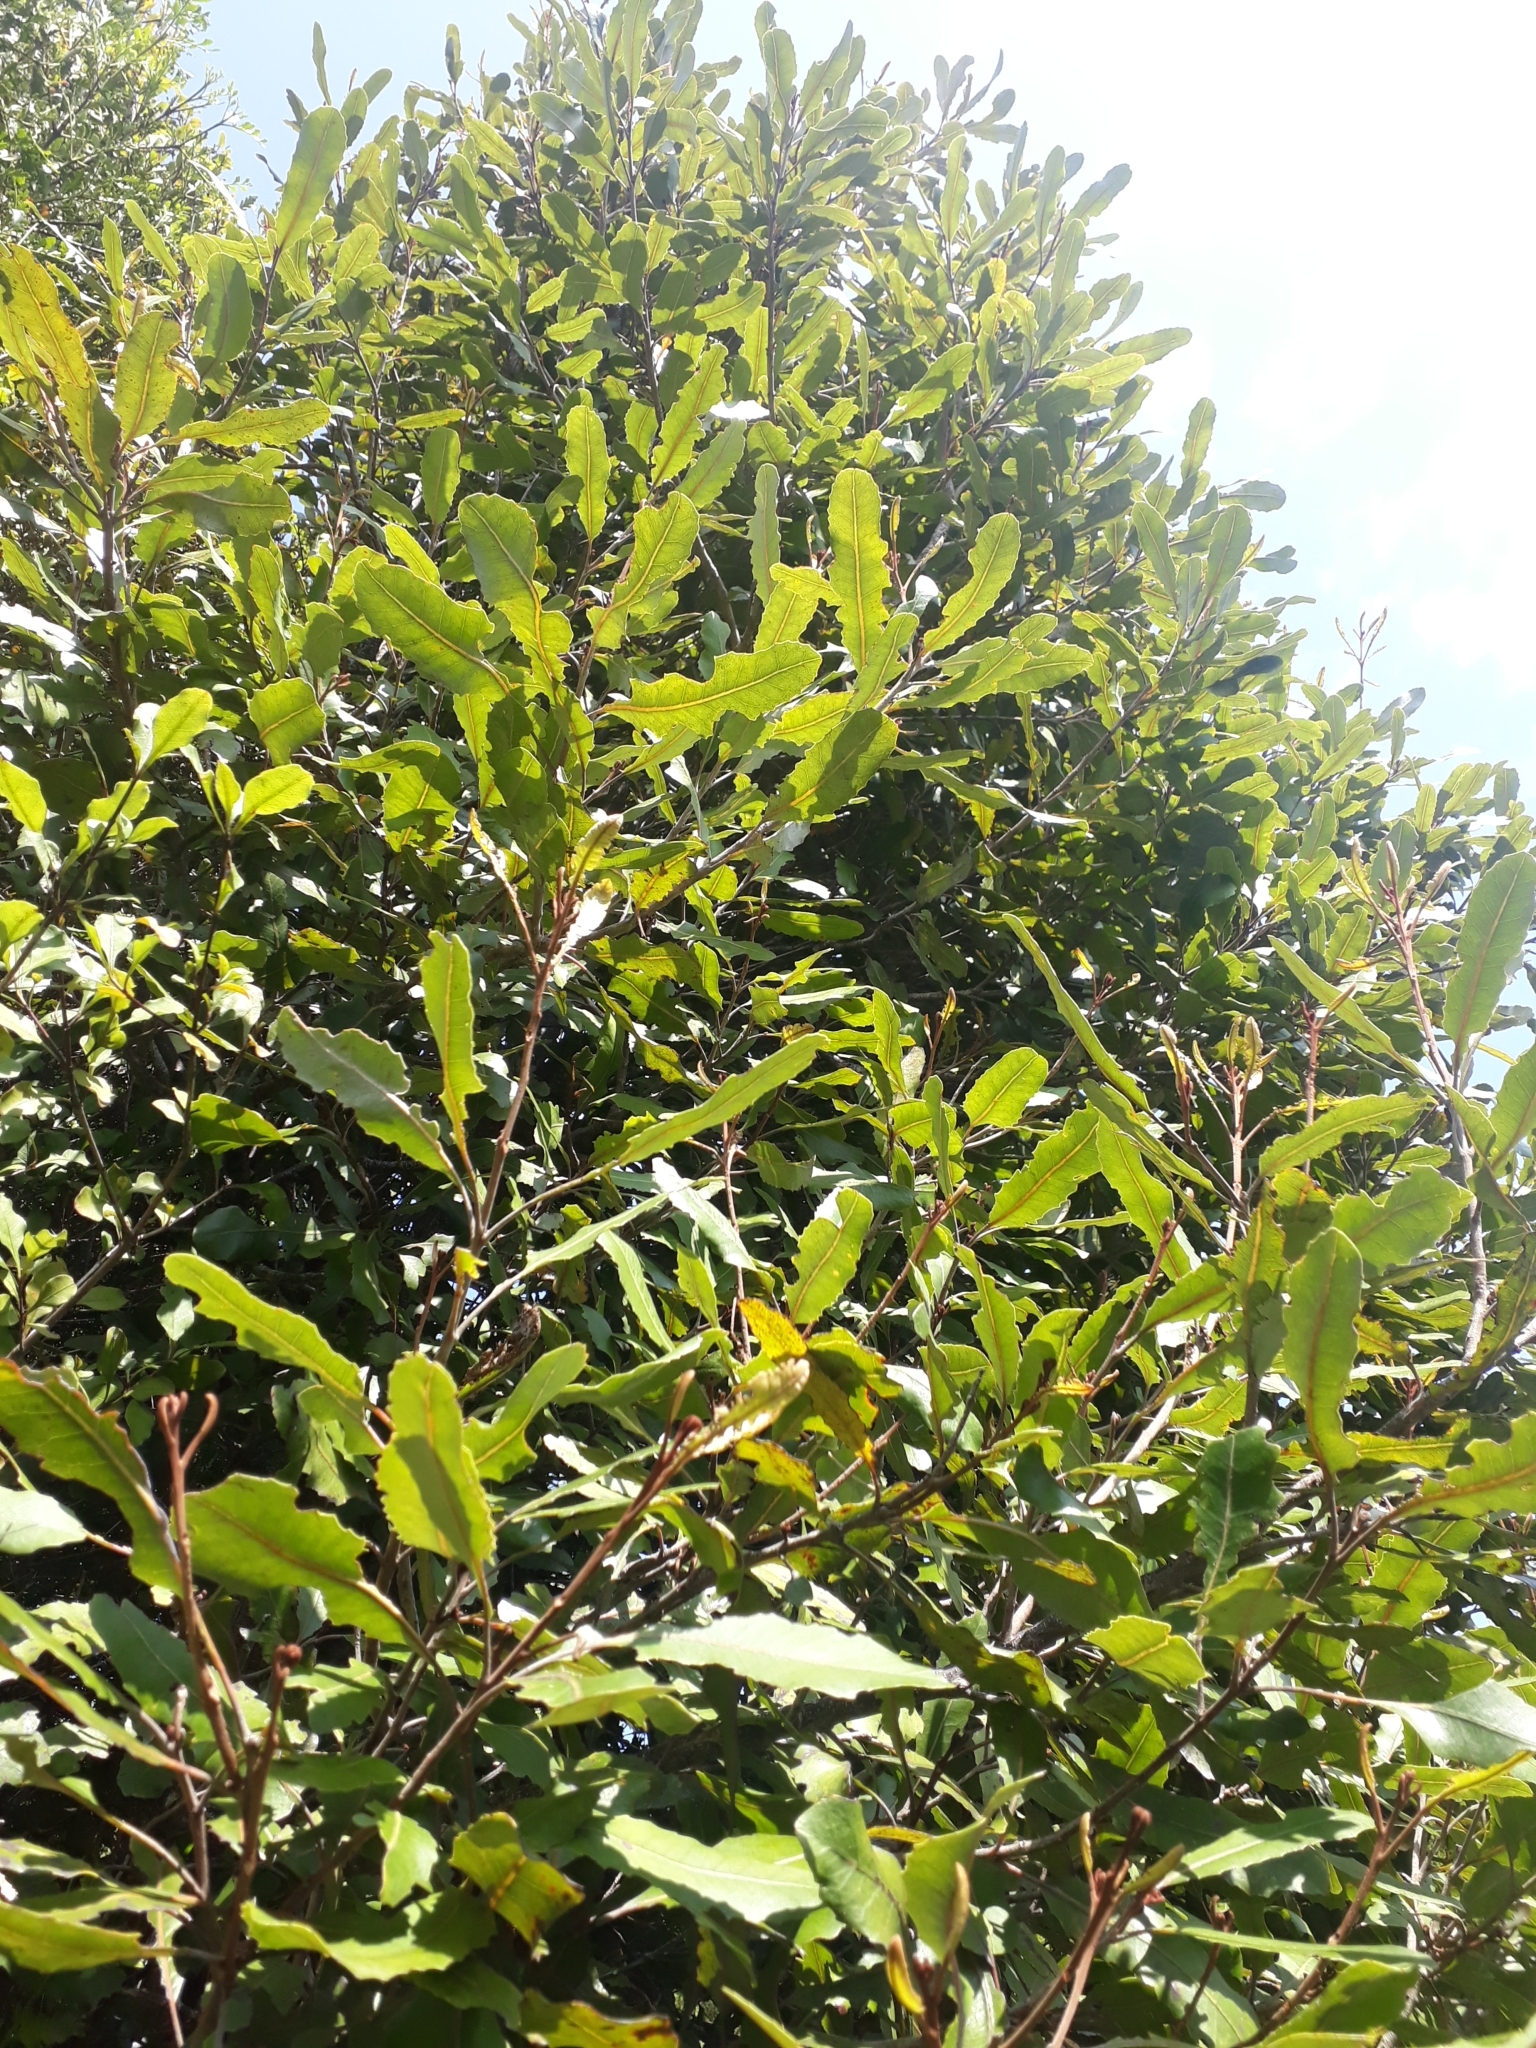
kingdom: Plantae
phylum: Tracheophyta
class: Magnoliopsida
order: Proteales
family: Proteaceae
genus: Knightia
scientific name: Knightia excelsa
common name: New zealand-honeysuckle
